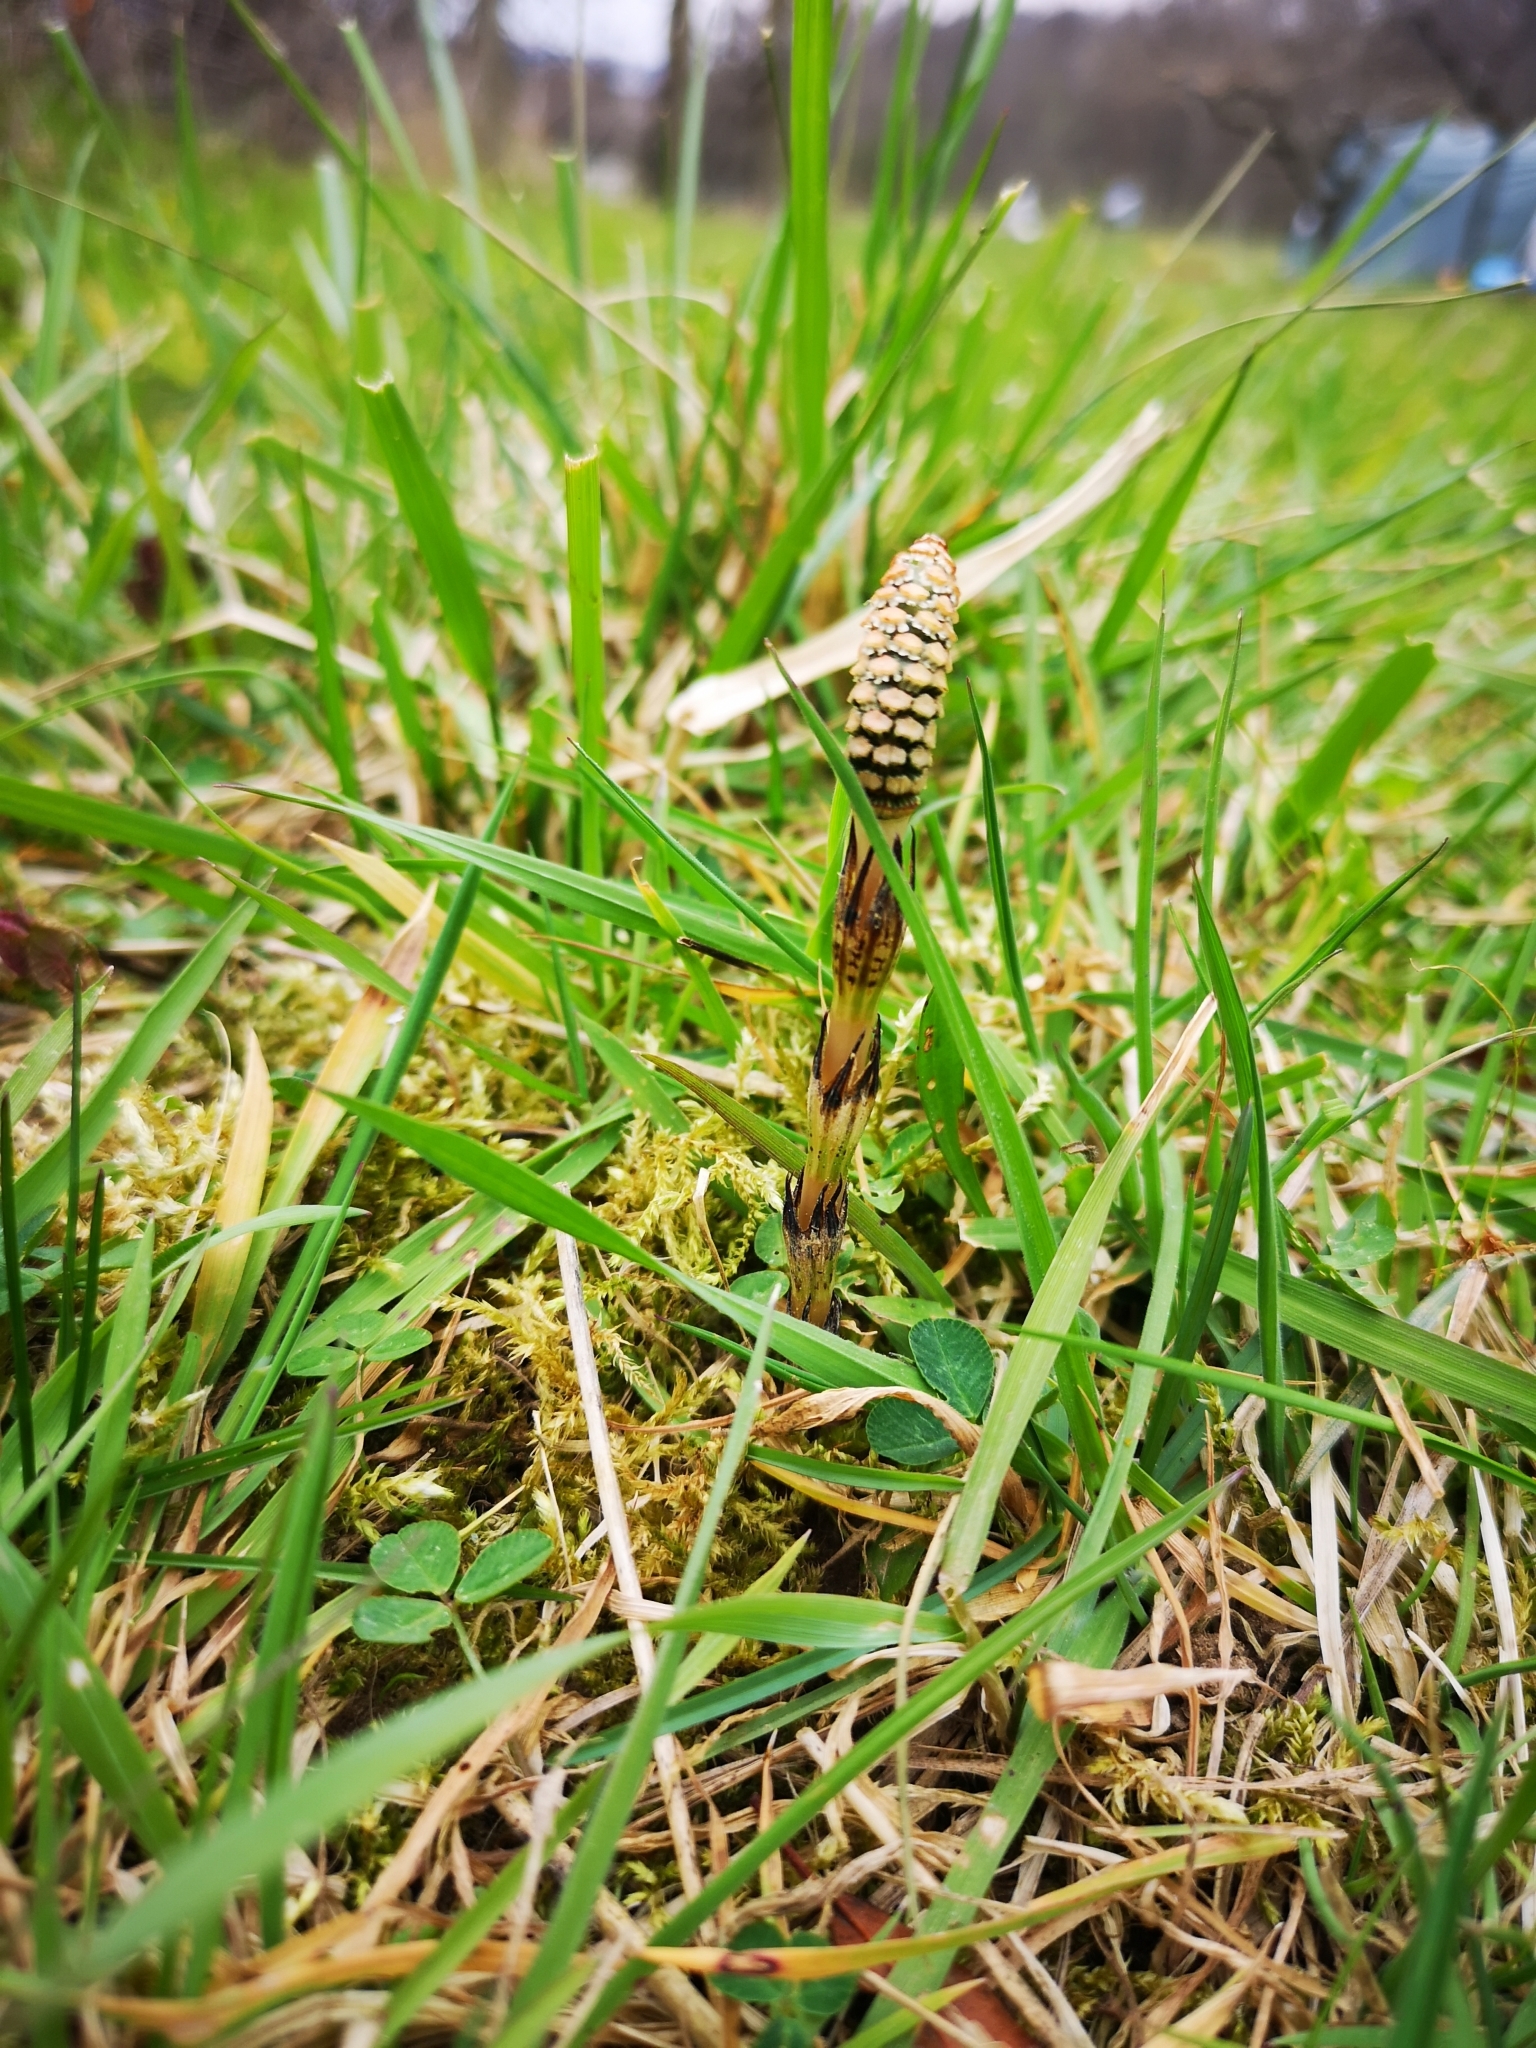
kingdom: Plantae
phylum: Tracheophyta
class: Polypodiopsida
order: Equisetales
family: Equisetaceae
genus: Equisetum
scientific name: Equisetum arvense
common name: Field horsetail
